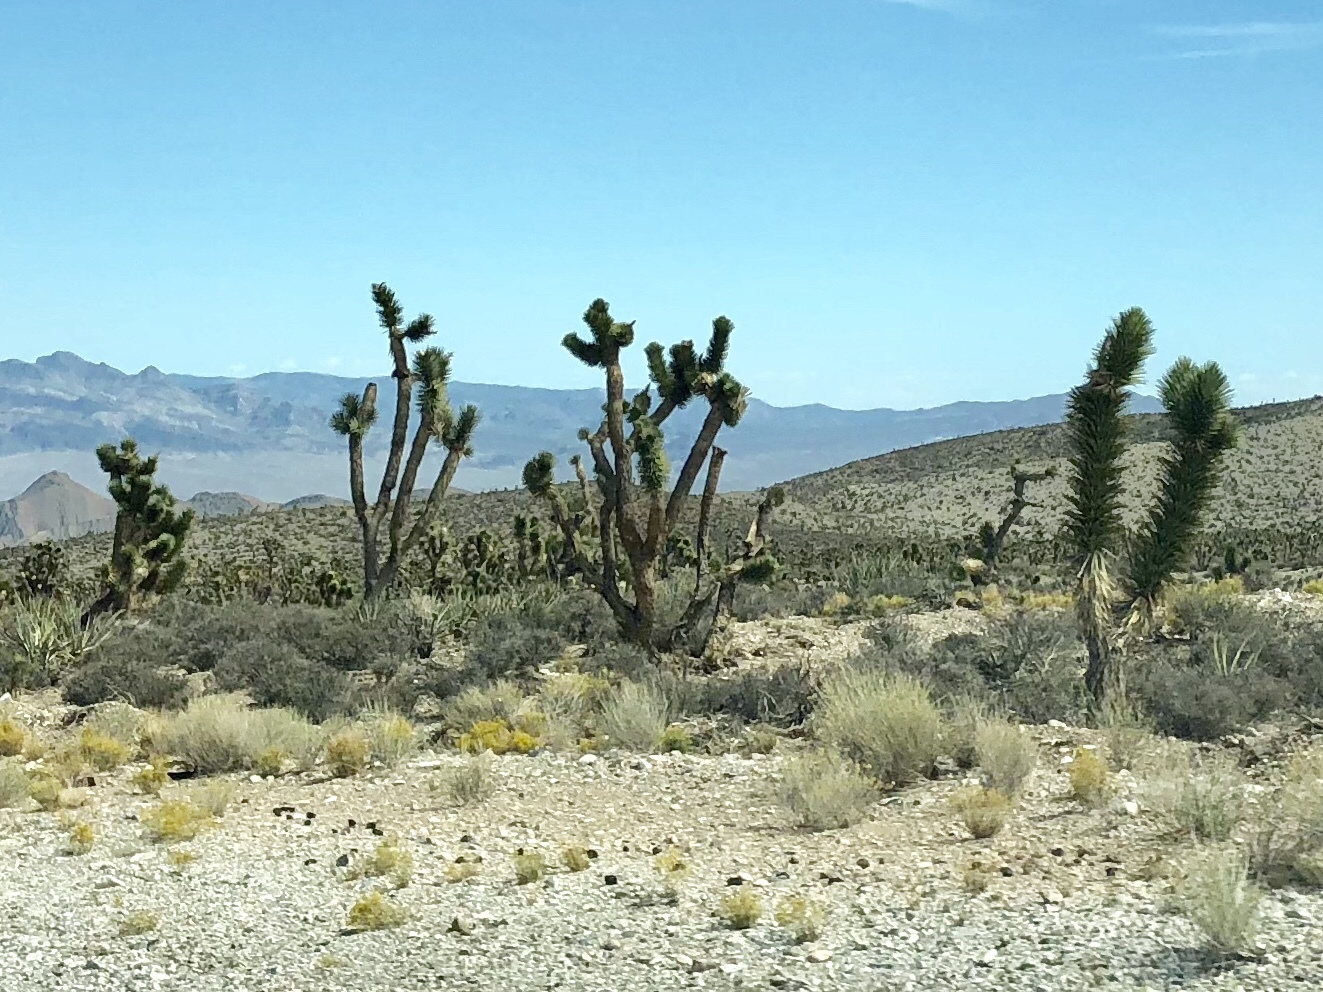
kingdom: Plantae
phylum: Tracheophyta
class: Liliopsida
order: Asparagales
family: Asparagaceae
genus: Yucca
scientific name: Yucca brevifolia
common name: Joshua tree
